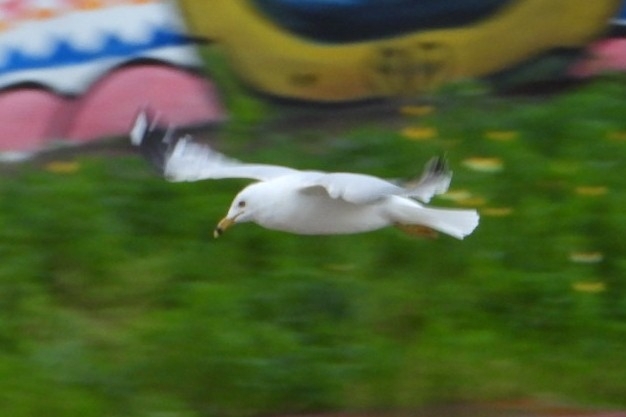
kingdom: Animalia
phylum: Chordata
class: Aves
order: Charadriiformes
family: Laridae
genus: Larus
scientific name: Larus delawarensis
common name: Ring-billed gull
